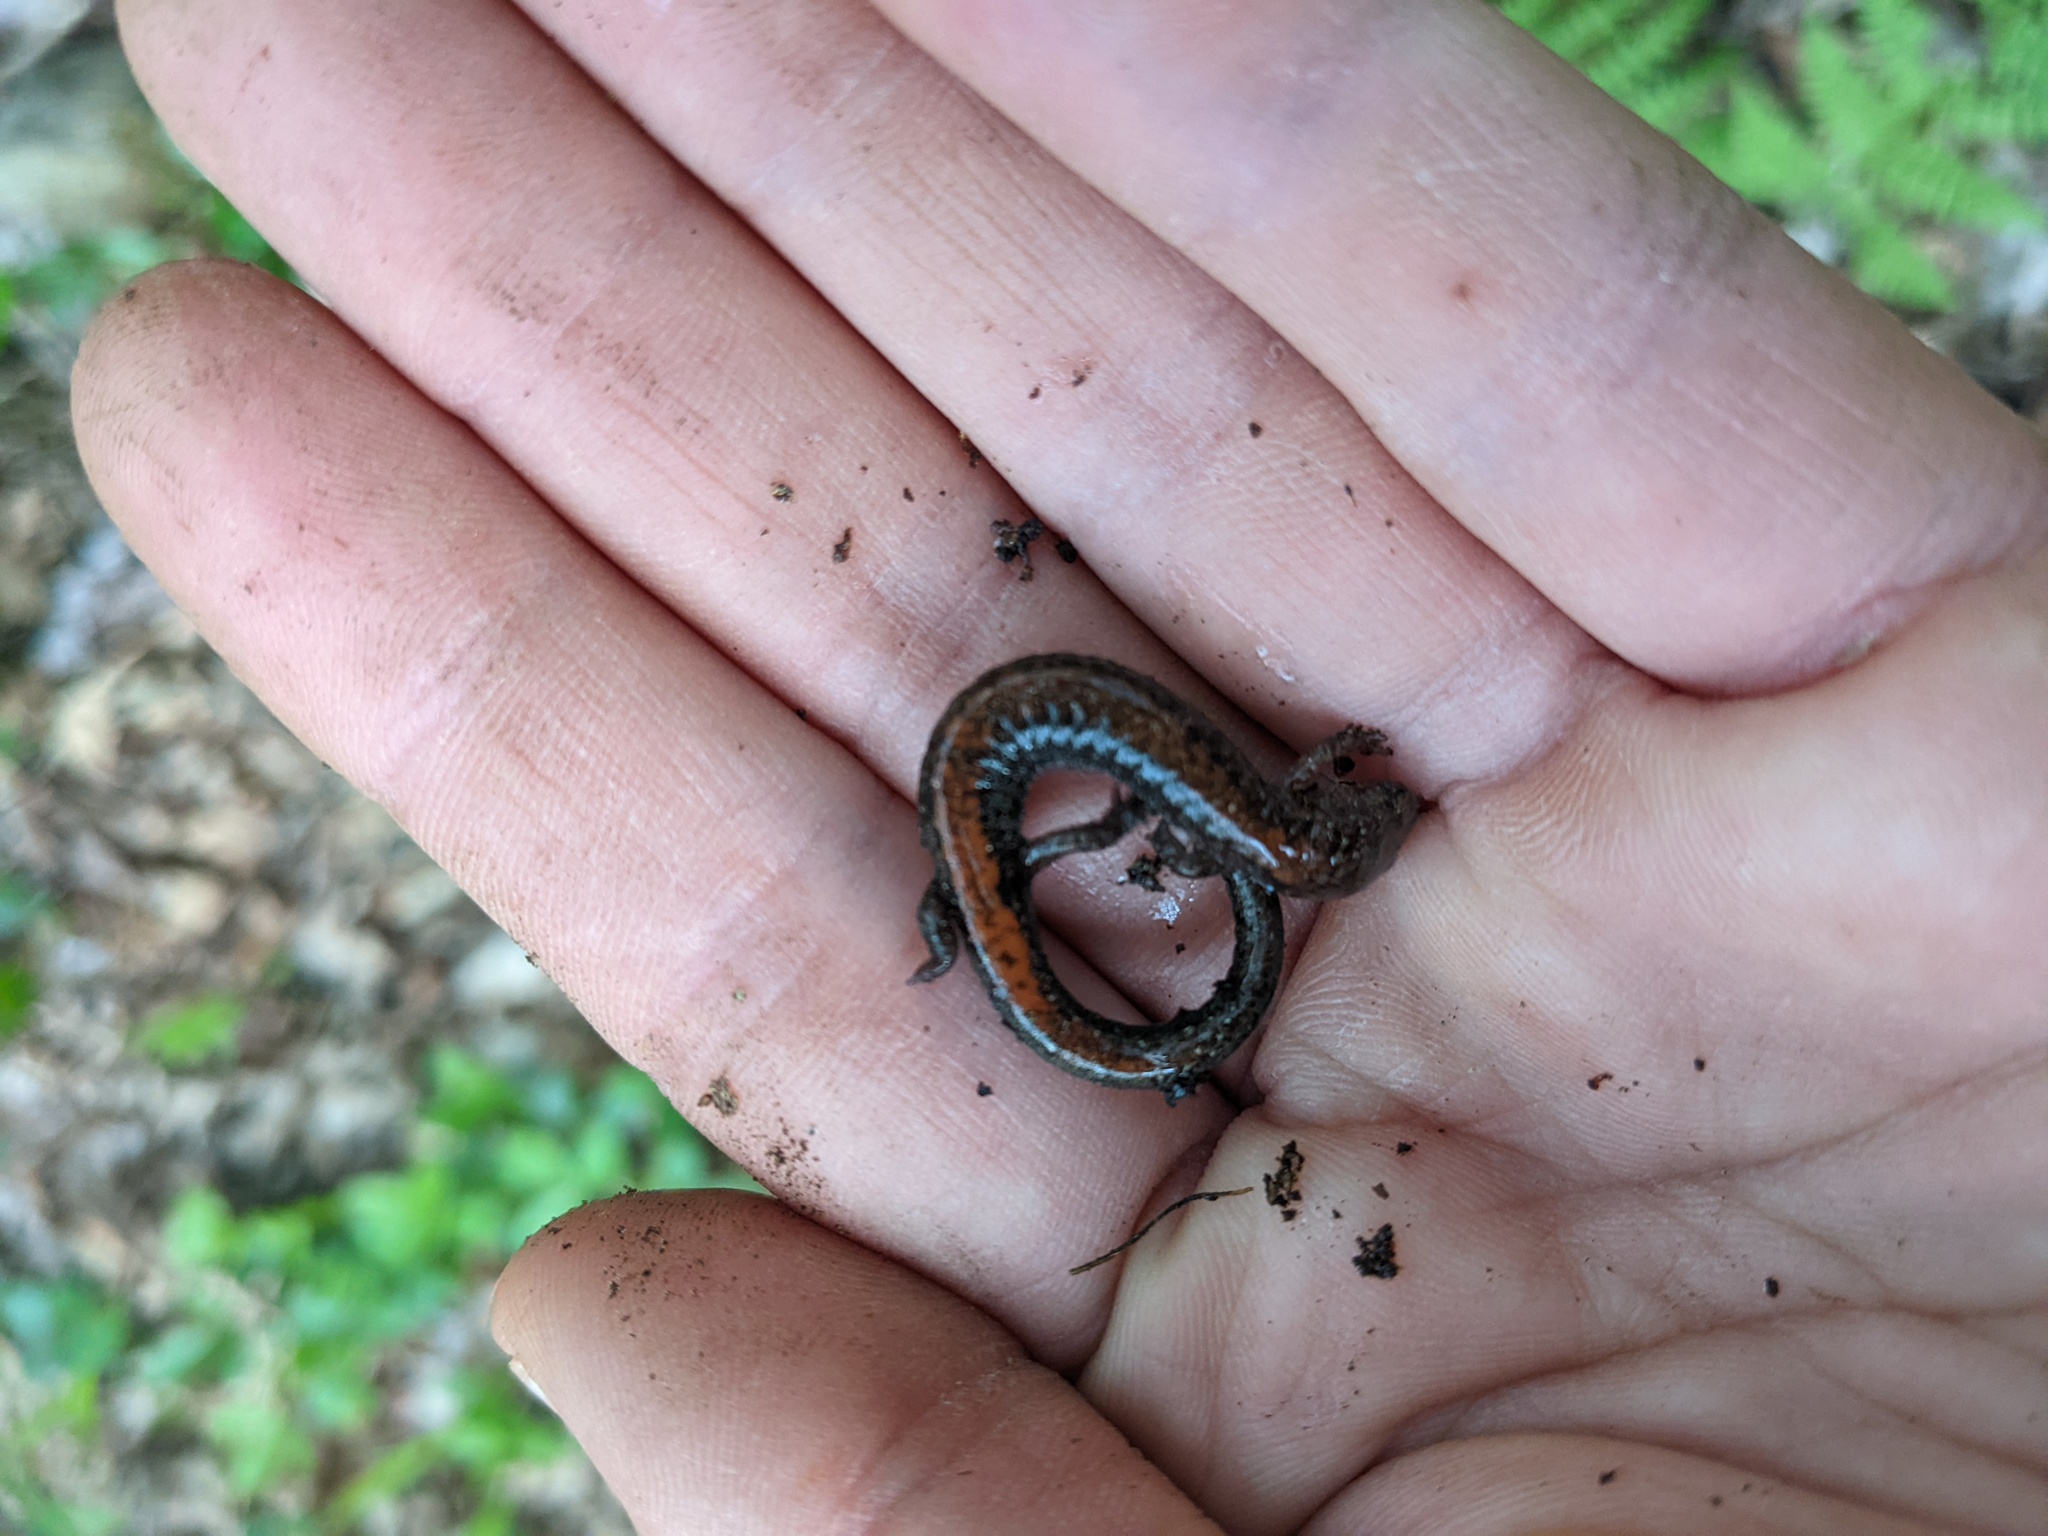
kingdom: Animalia
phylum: Chordata
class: Amphibia
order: Caudata
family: Plethodontidae
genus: Plethodon
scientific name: Plethodon cinereus
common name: Redback salamander
